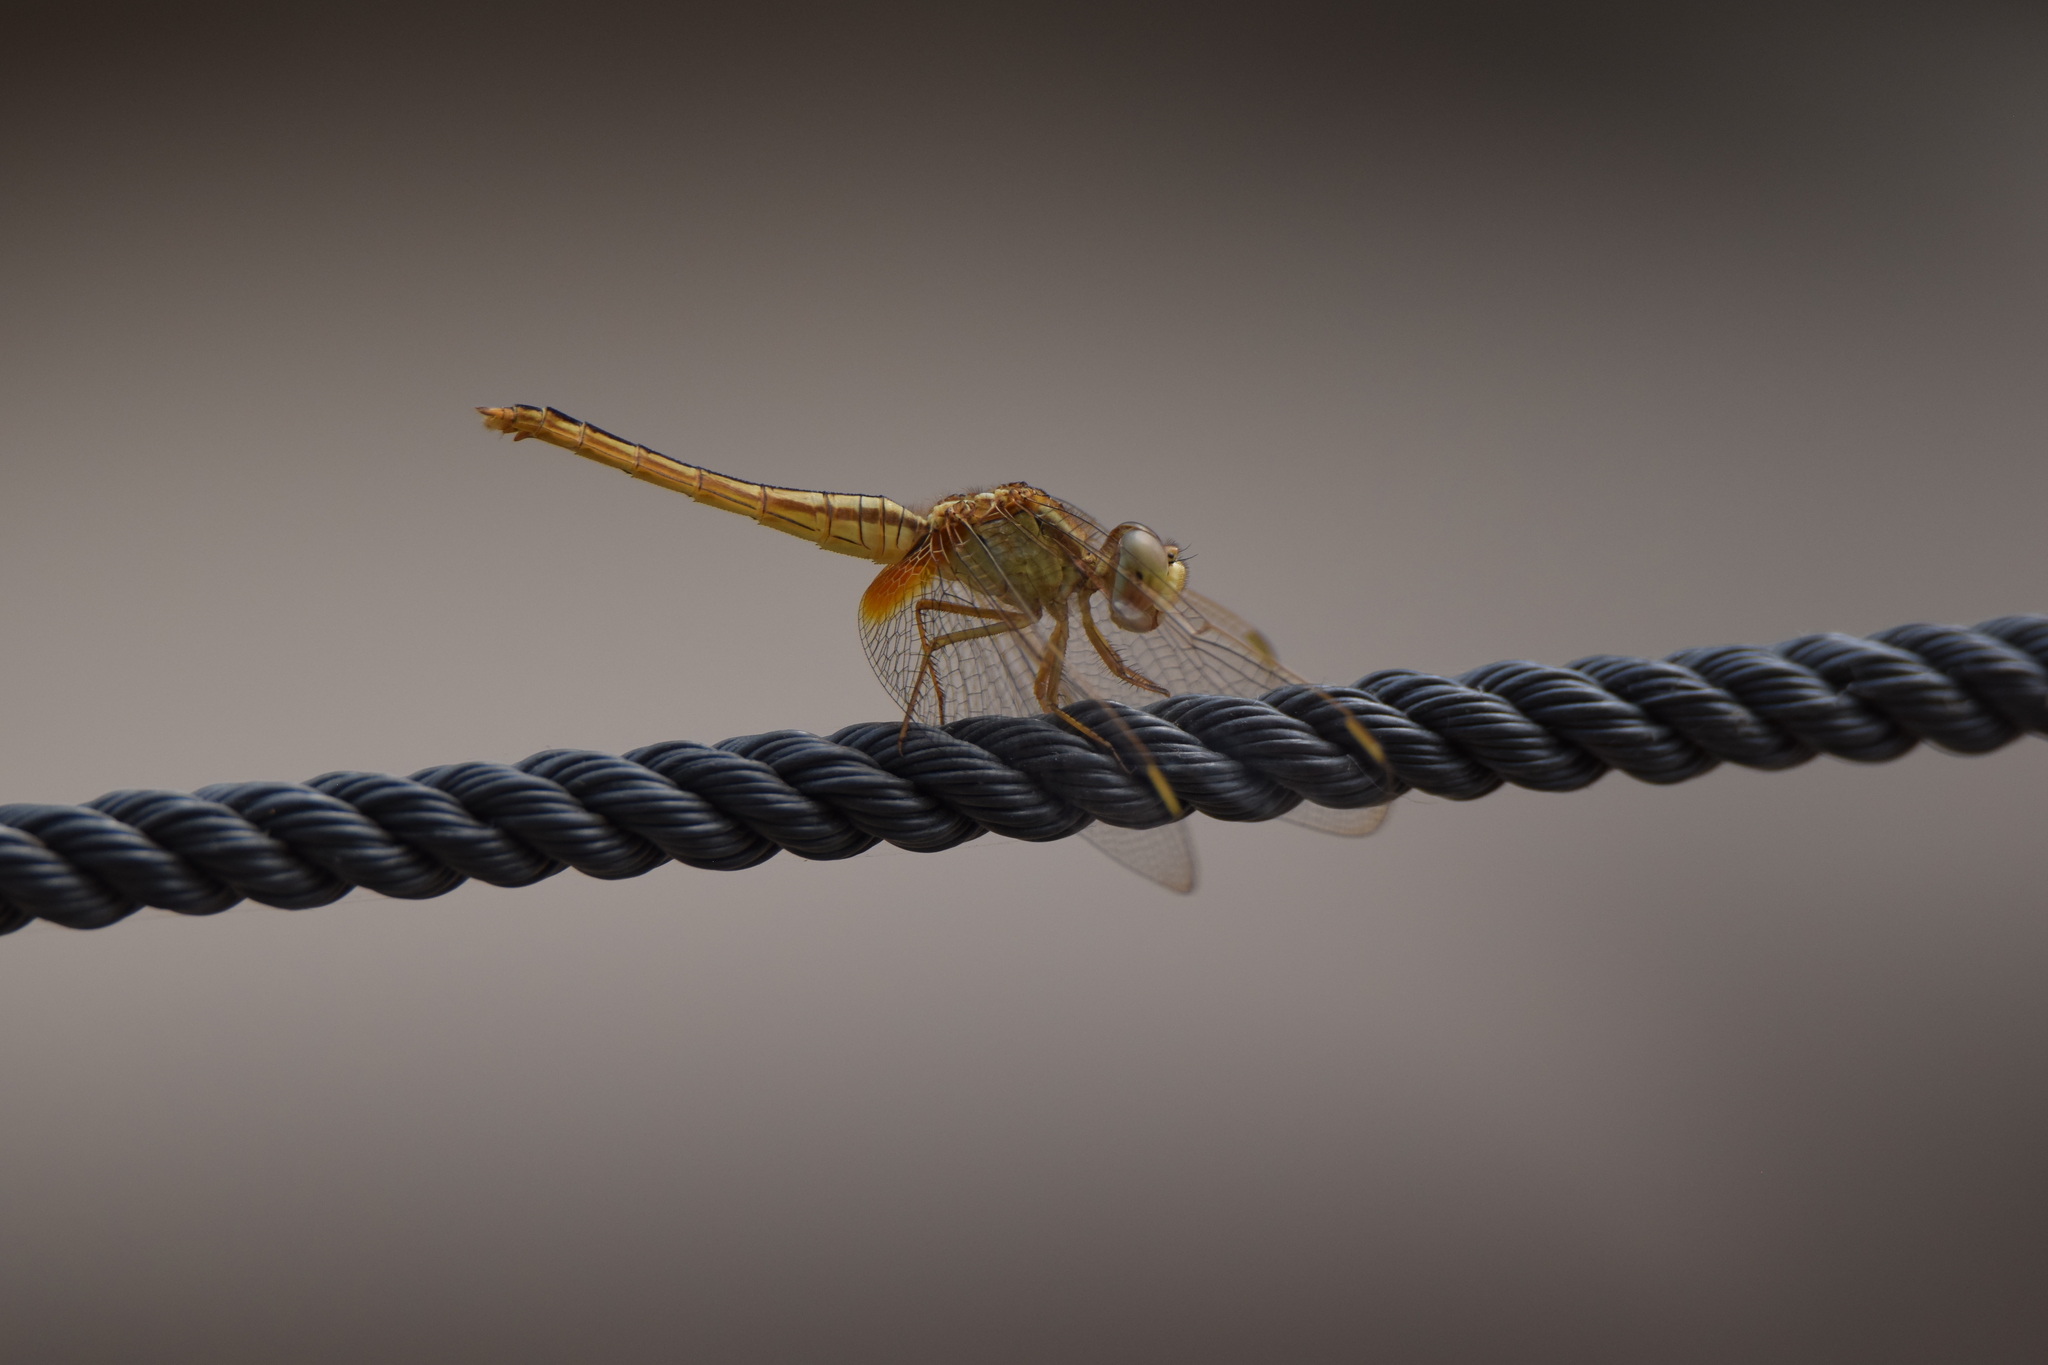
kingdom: Animalia
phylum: Arthropoda
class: Insecta
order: Odonata
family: Libellulidae
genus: Crocothemis
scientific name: Crocothemis servilia
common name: Scarlet skimmer
